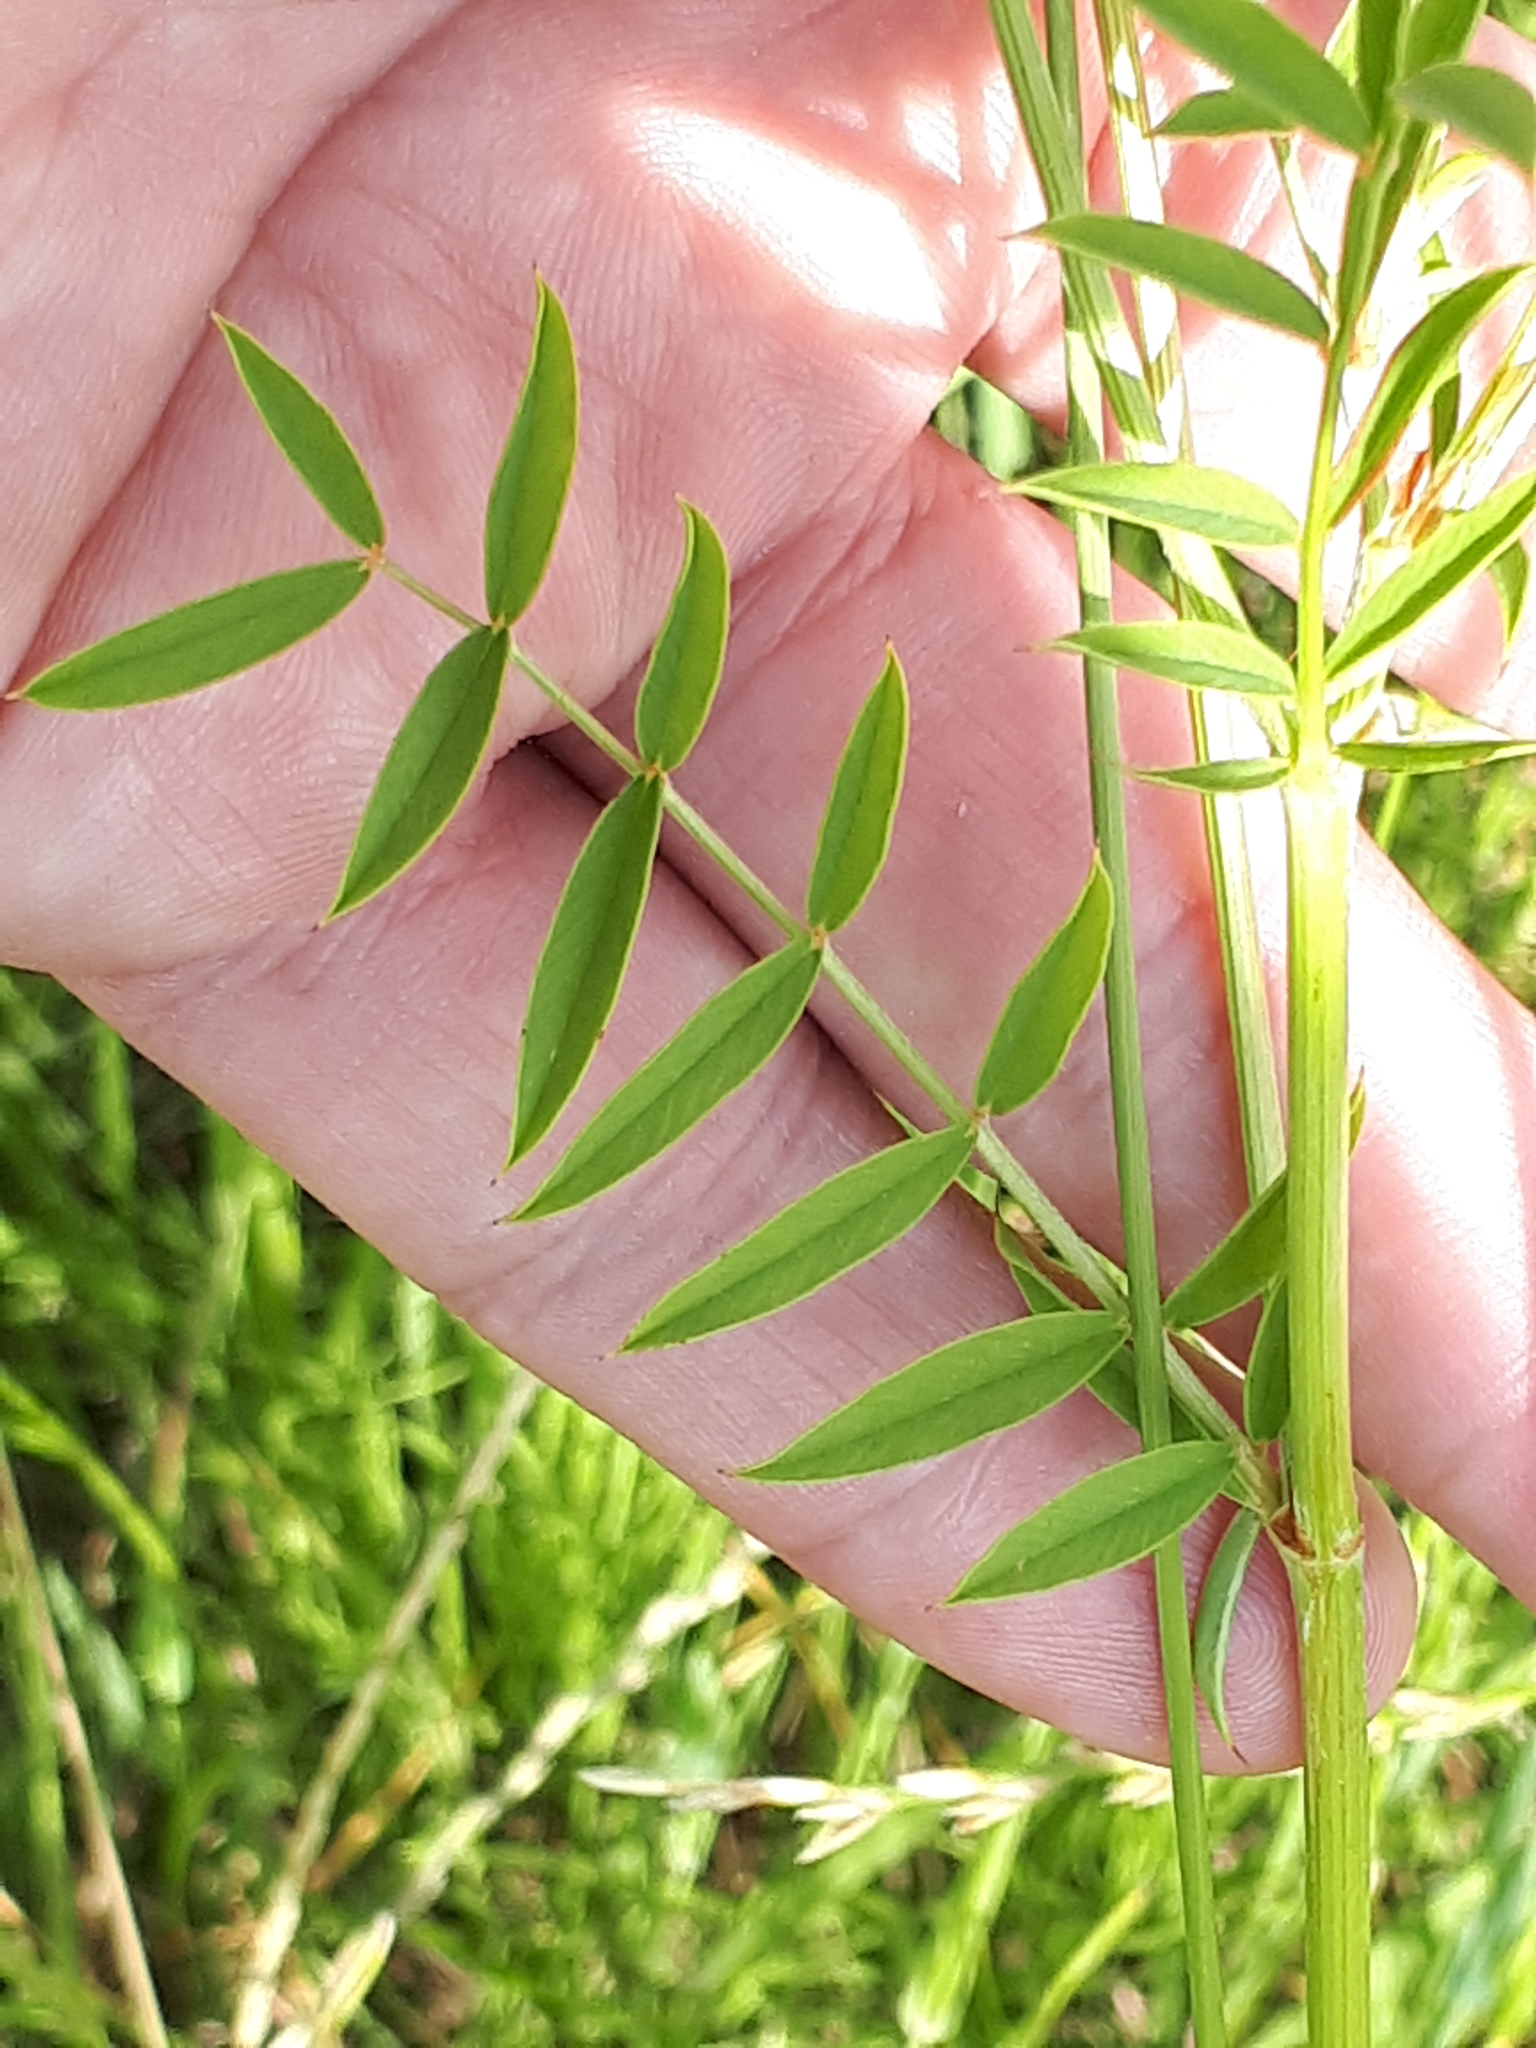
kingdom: Plantae
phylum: Tracheophyta
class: Magnoliopsida
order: Fabales
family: Fabaceae
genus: Onobrychis
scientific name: Onobrychis viciifolia
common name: Sainfoin
